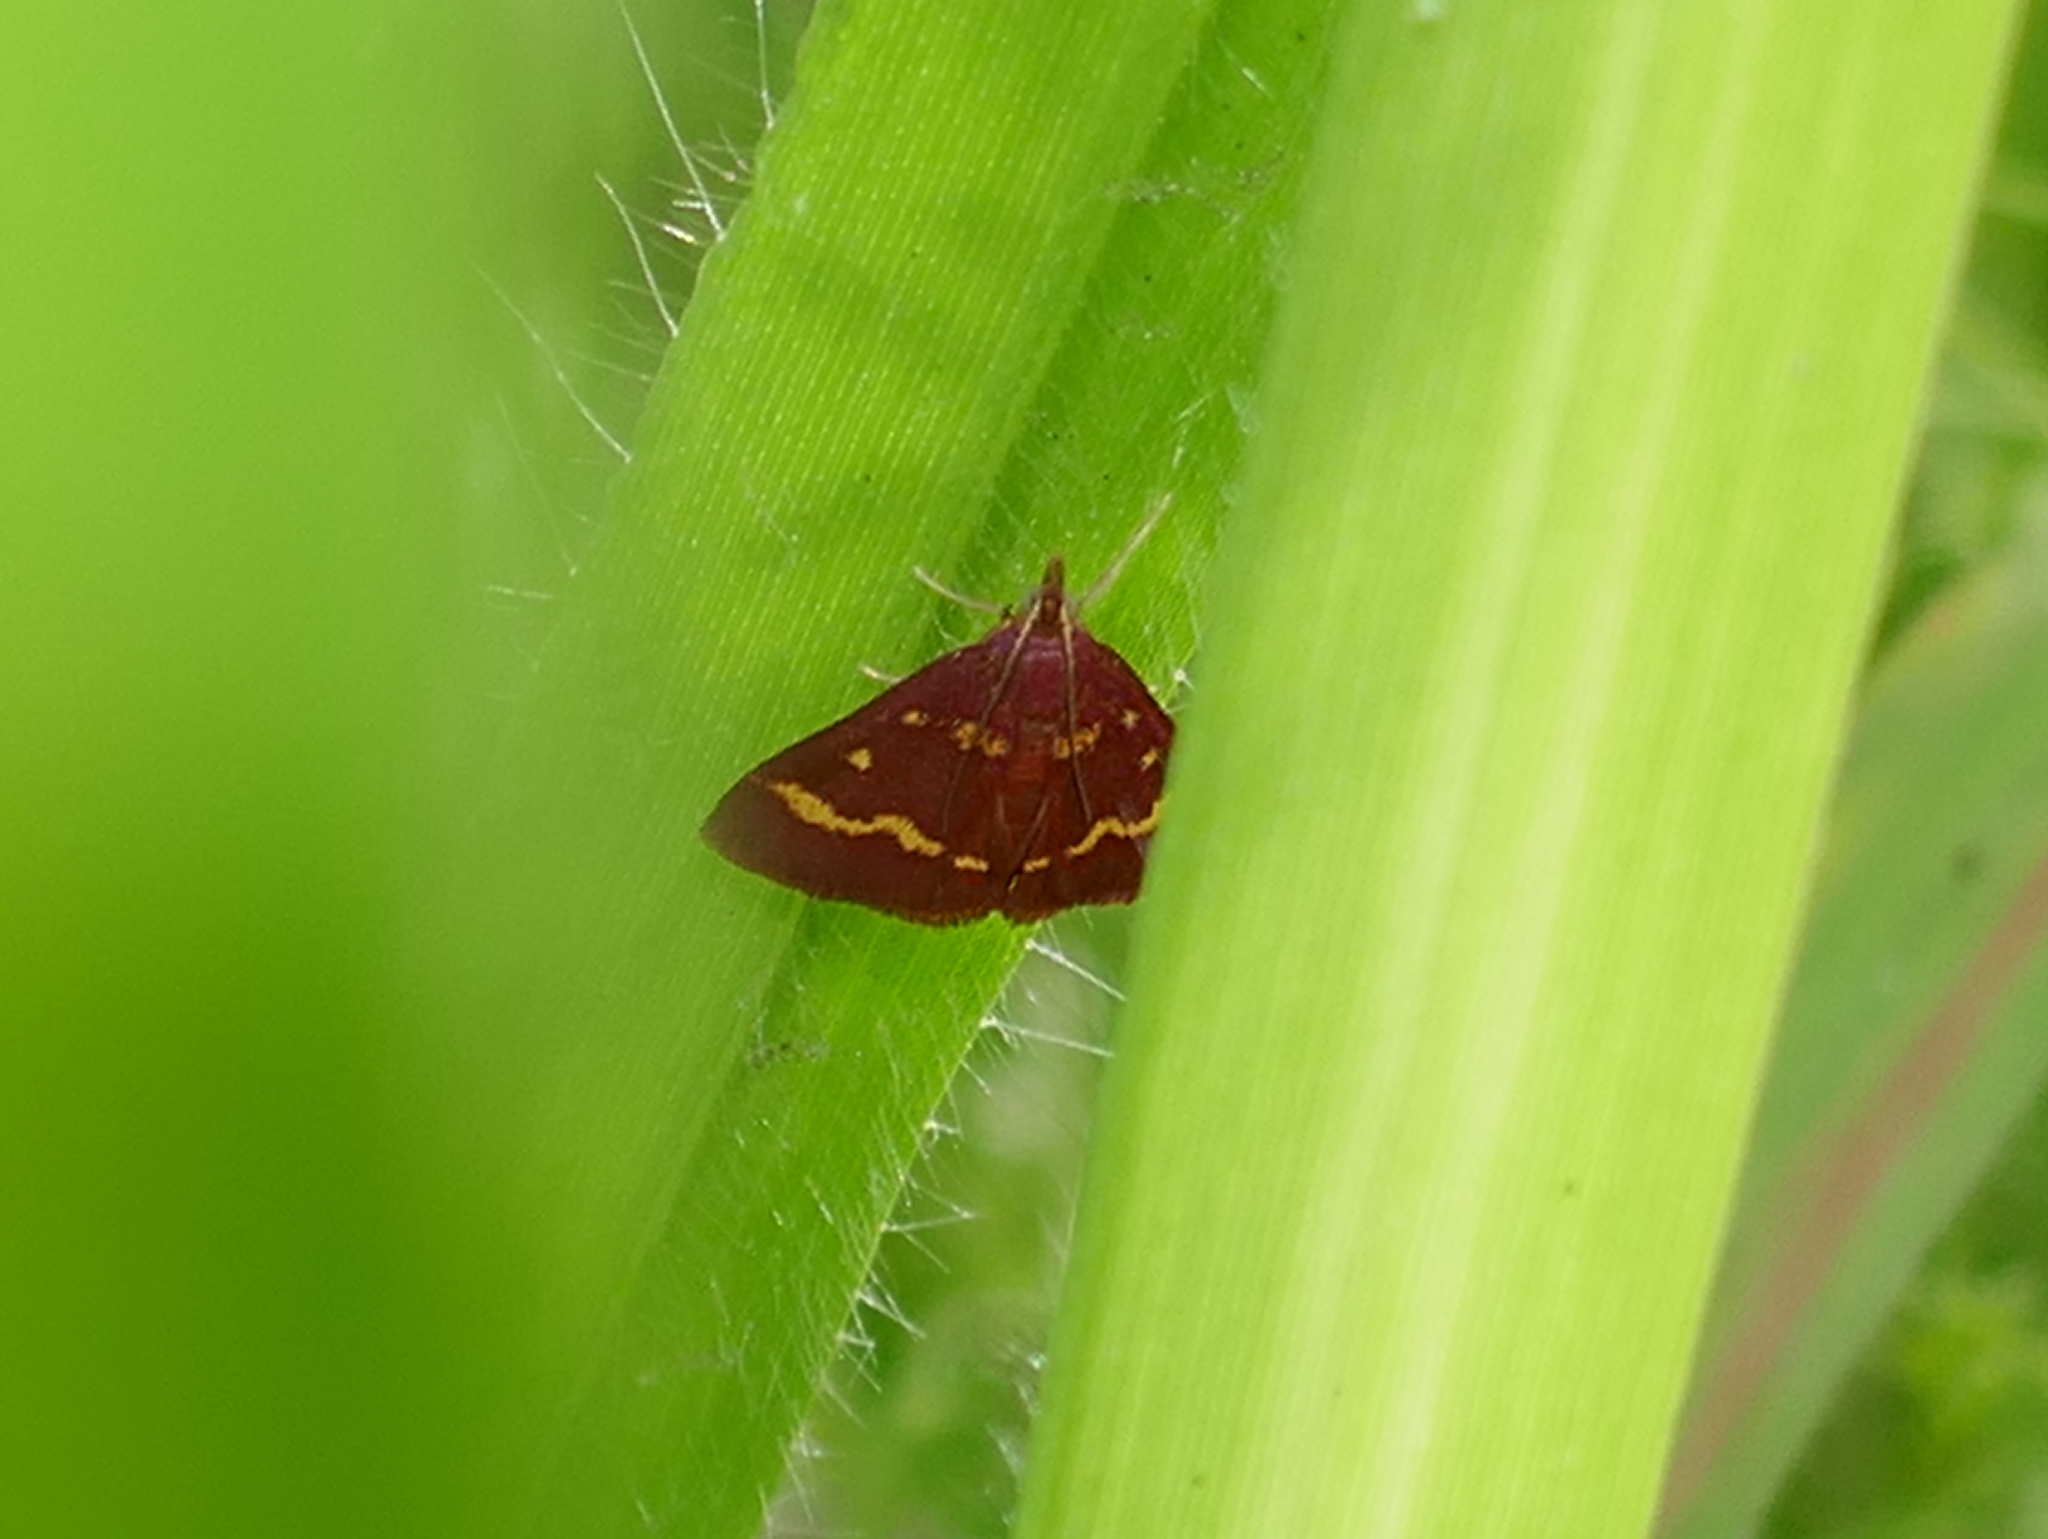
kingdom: Animalia
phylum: Arthropoda
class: Insecta
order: Lepidoptera
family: Crambidae
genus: Pyrausta
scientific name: Pyrausta tyralis
